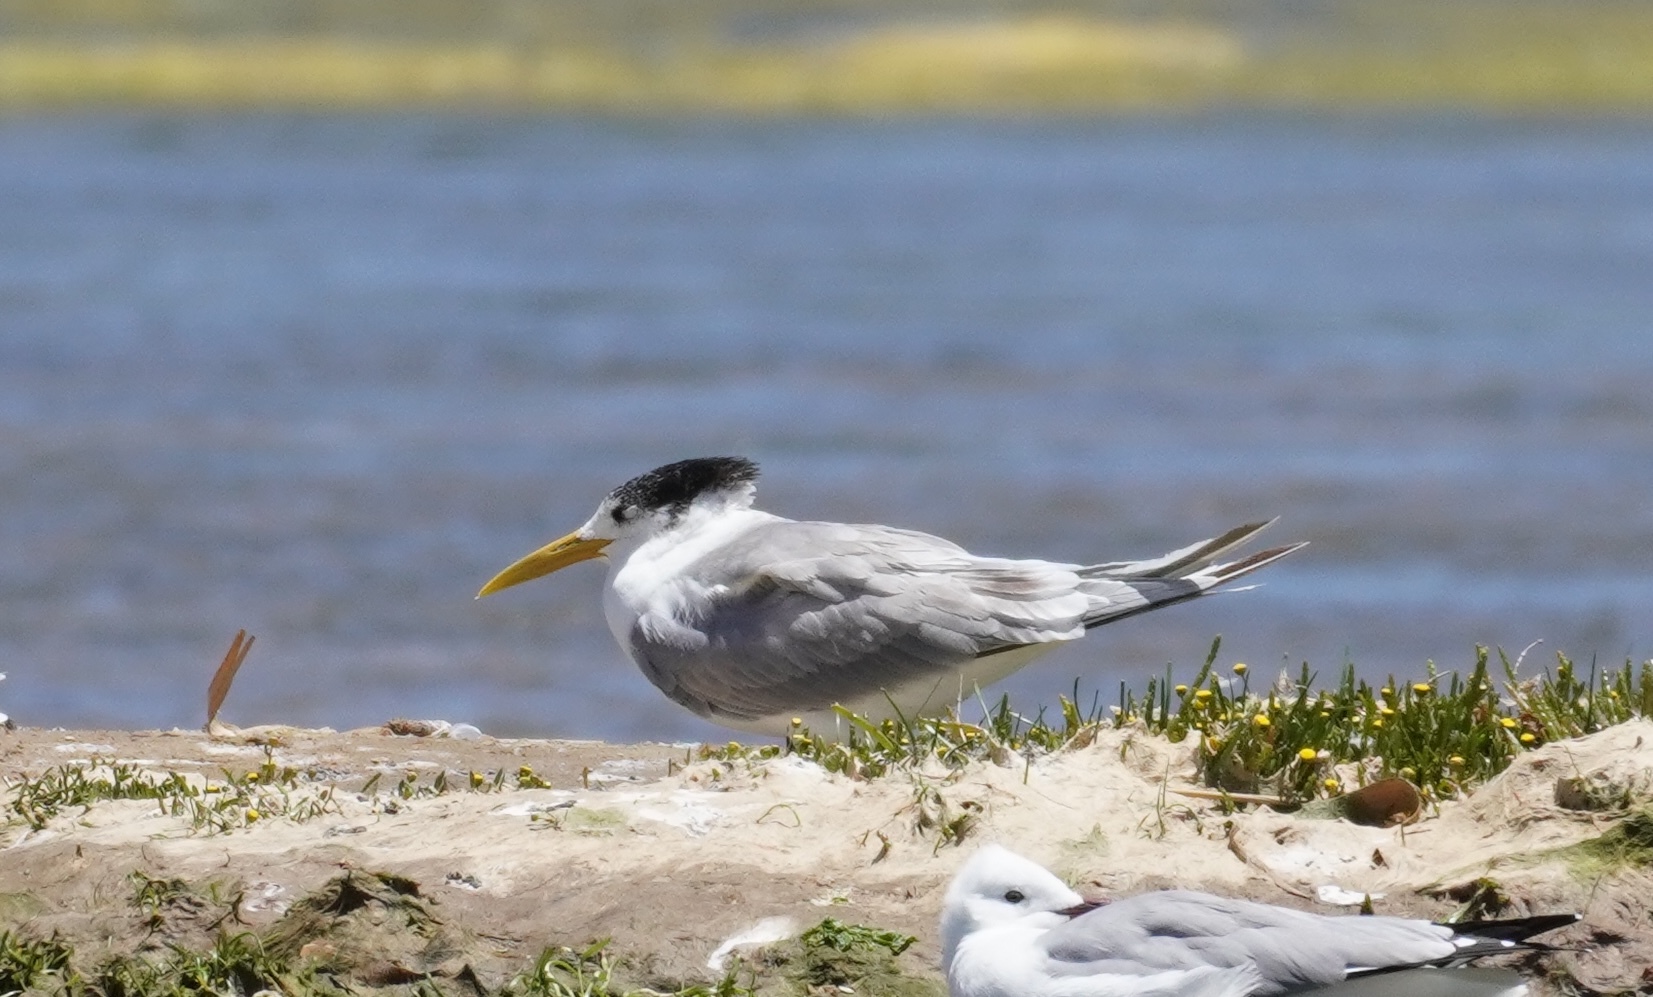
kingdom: Animalia
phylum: Chordata
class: Aves
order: Charadriiformes
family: Laridae
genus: Thalasseus
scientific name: Thalasseus bergii
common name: Greater crested tern
